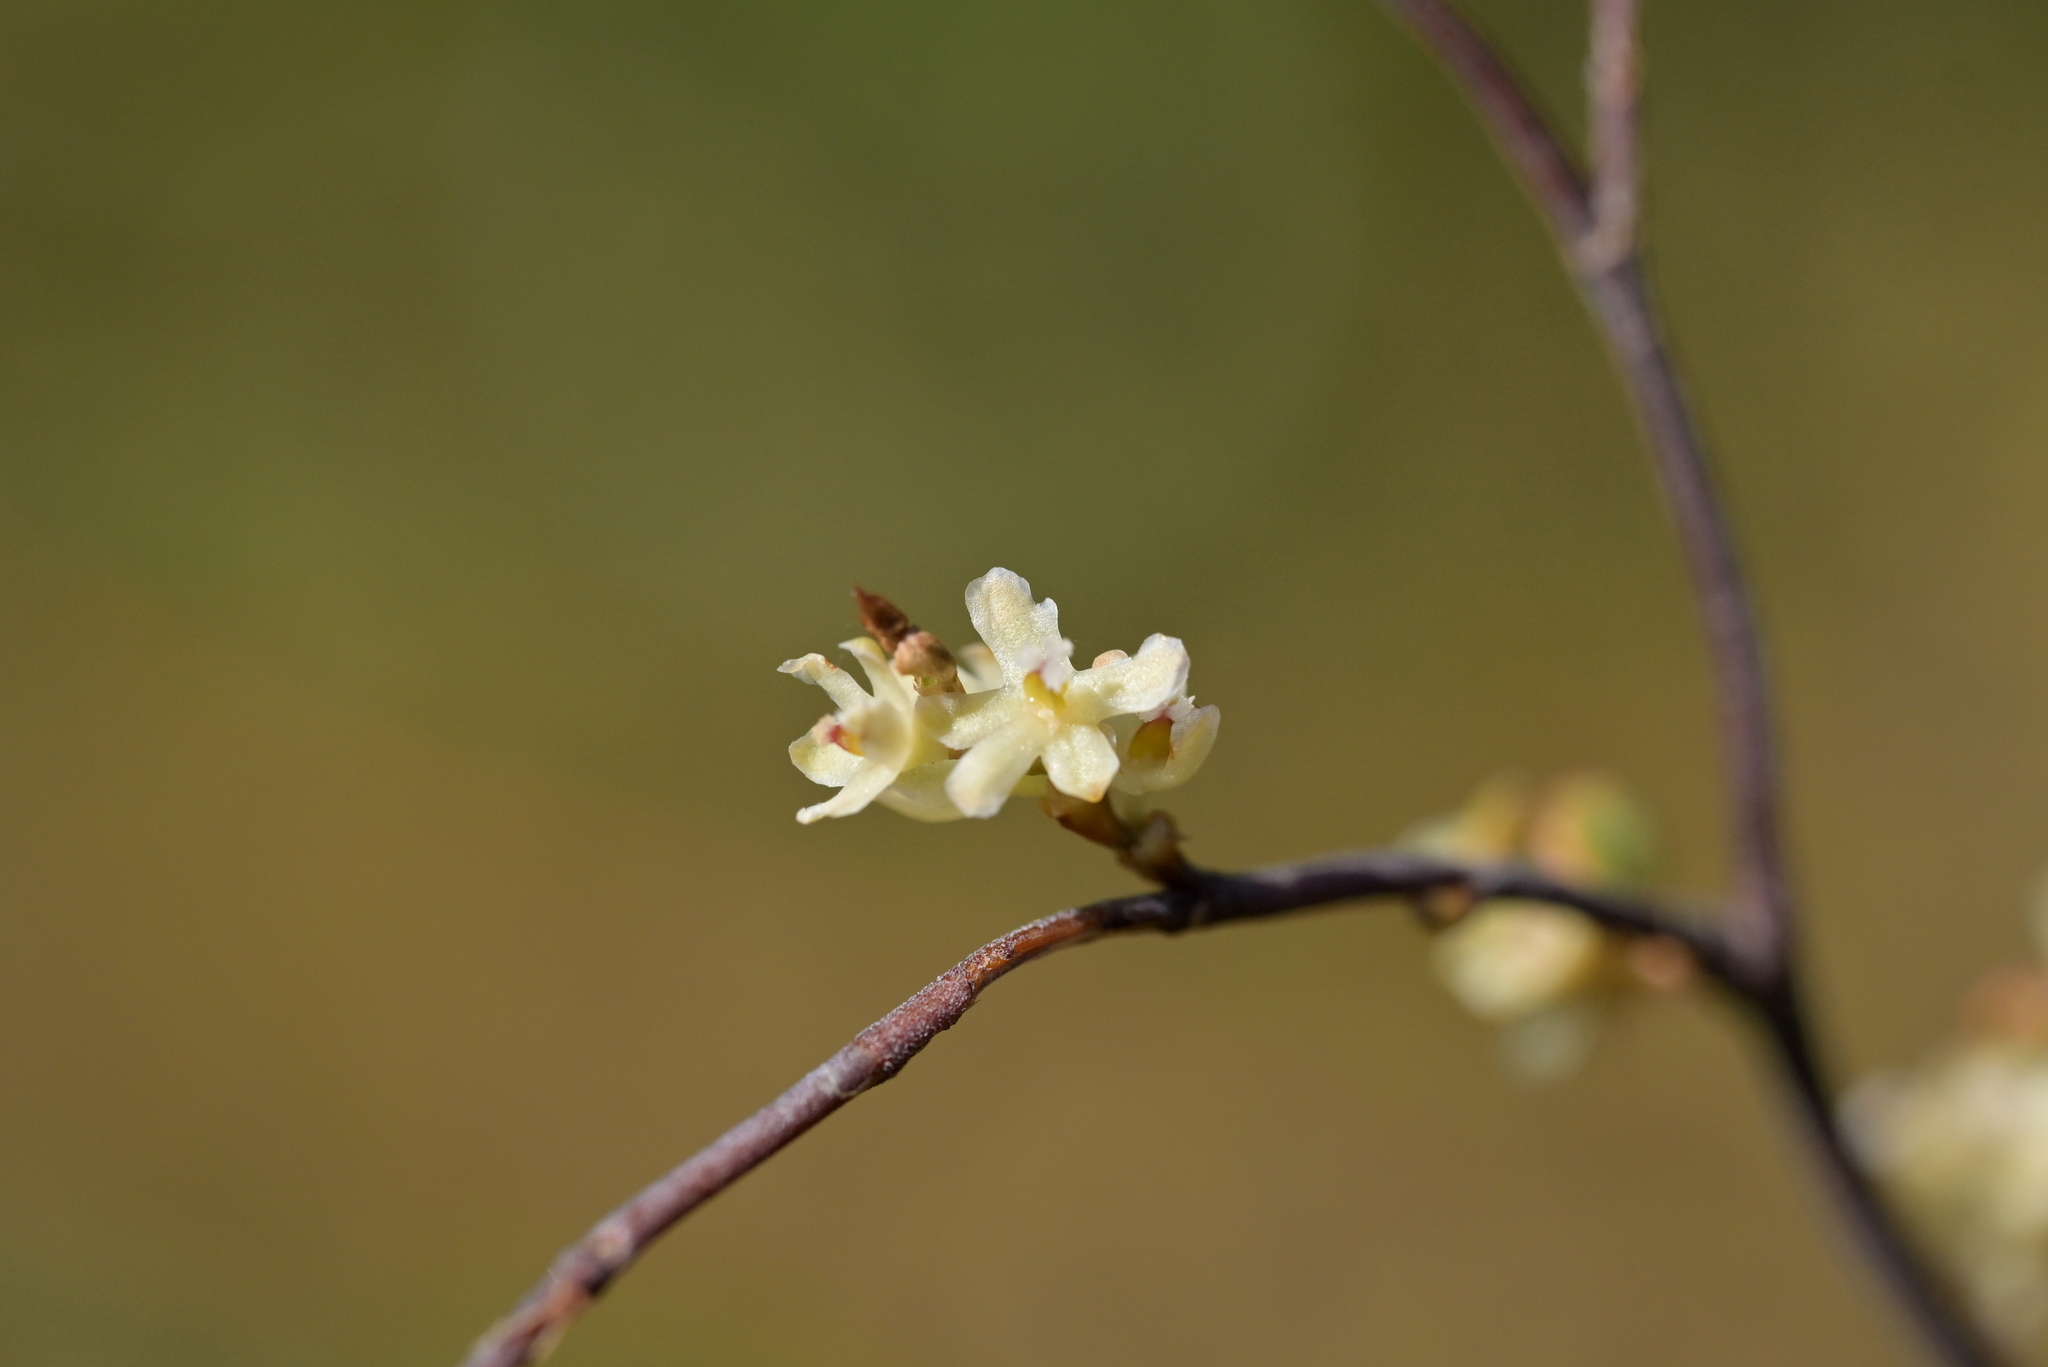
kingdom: Plantae
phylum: Tracheophyta
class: Magnoliopsida
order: Caryophyllales
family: Polygonaceae
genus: Muehlenbeckia
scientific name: Muehlenbeckia complexa
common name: Wireplant
